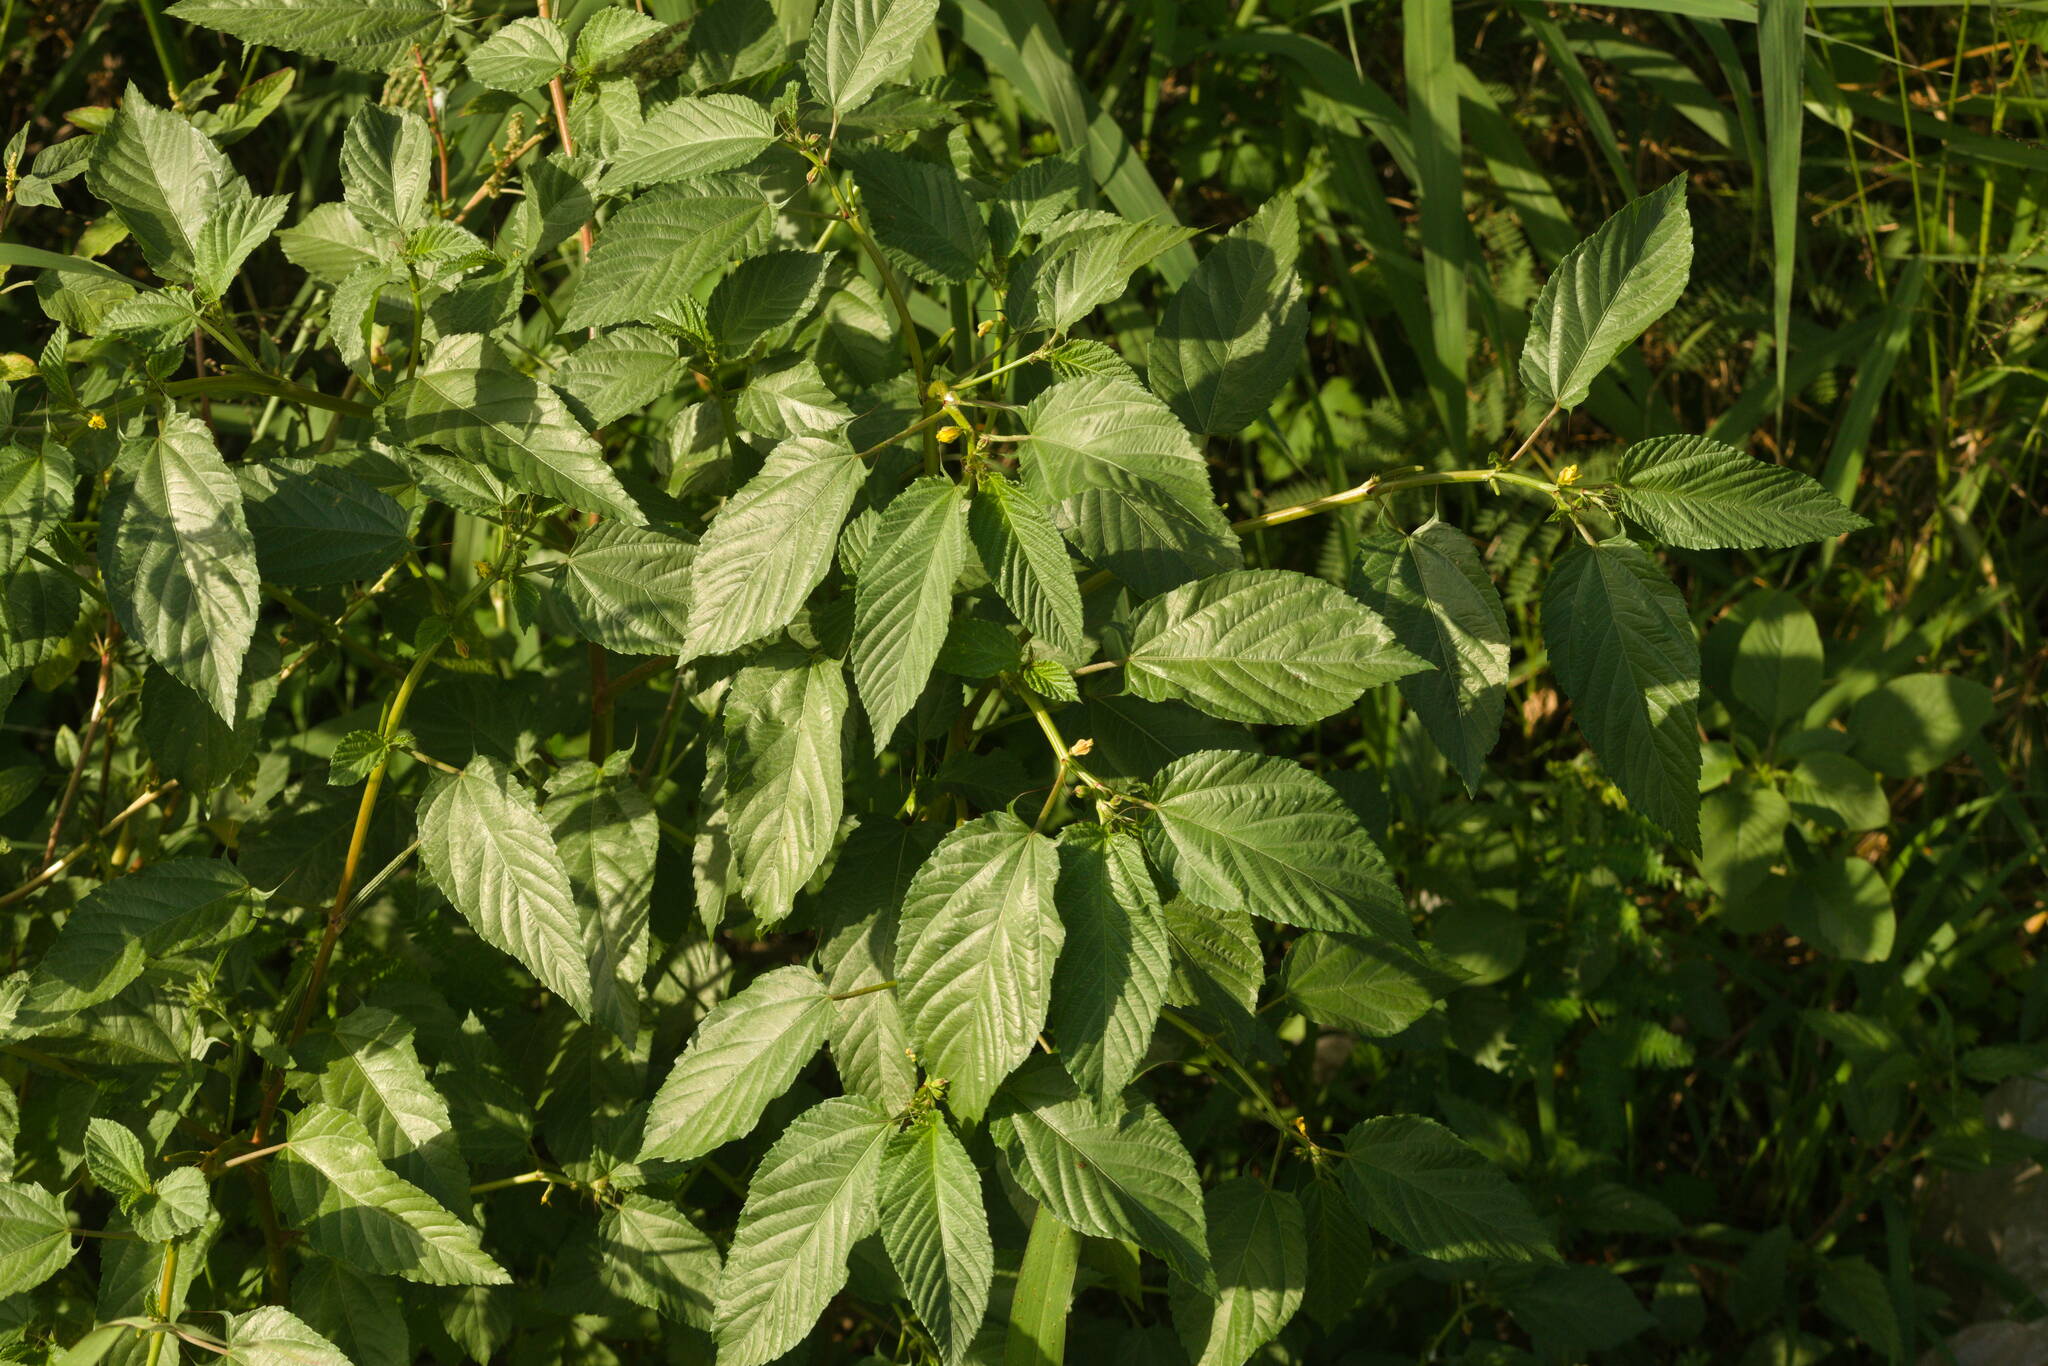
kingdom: Plantae
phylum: Tracheophyta
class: Magnoliopsida
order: Malvales
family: Malvaceae
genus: Corchorus
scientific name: Corchorus olitorius
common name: Tossa jute
